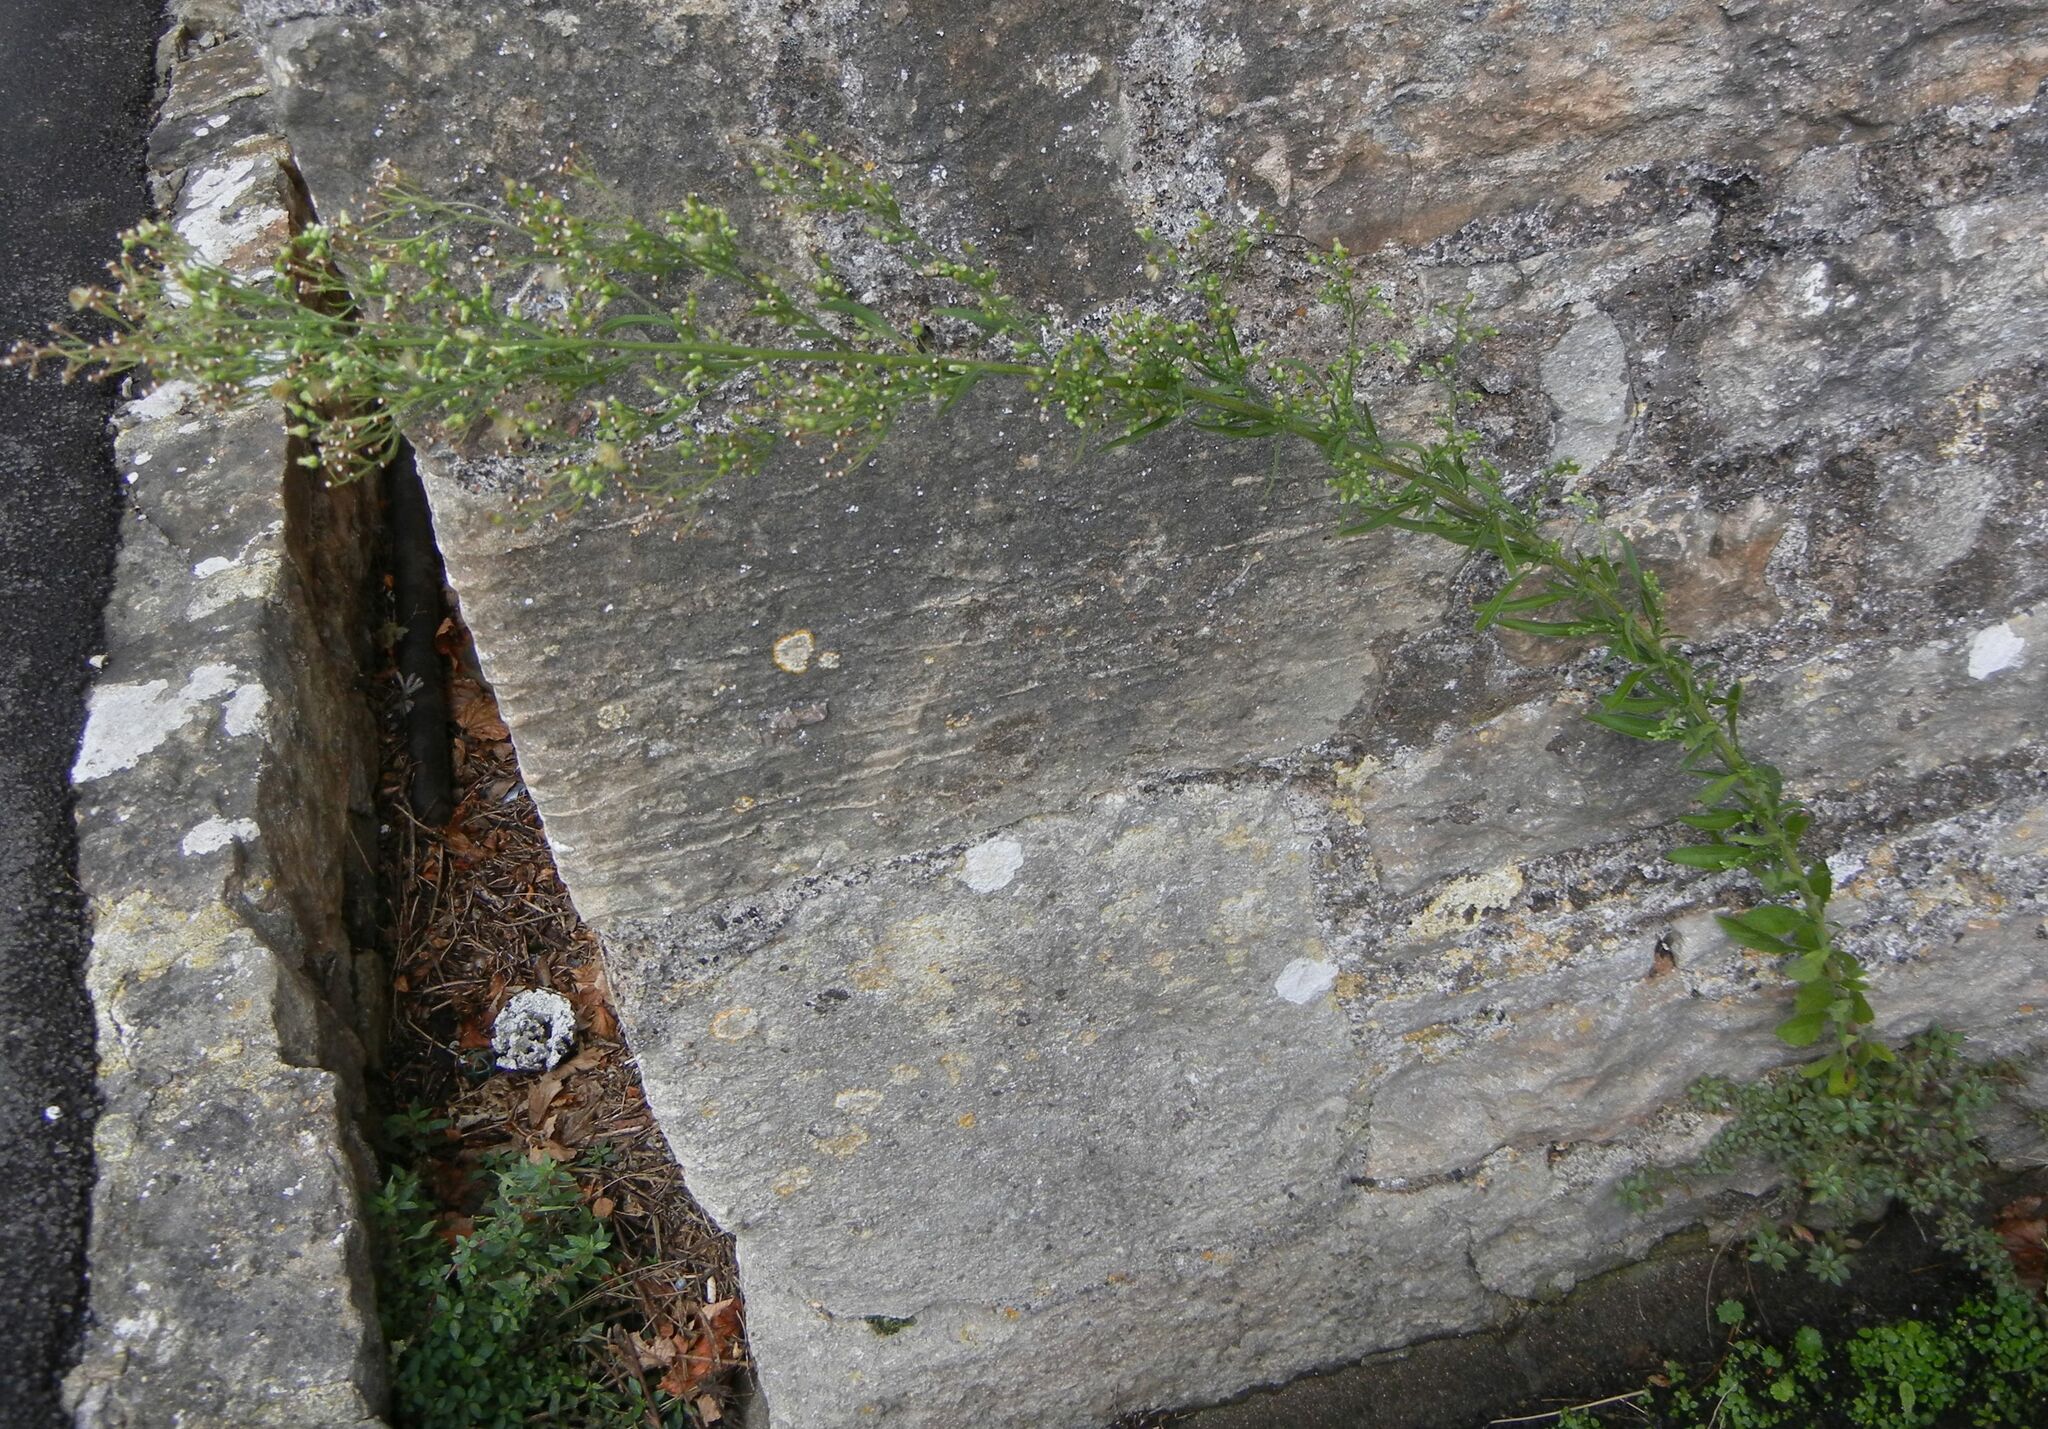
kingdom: Plantae
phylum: Tracheophyta
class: Magnoliopsida
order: Asterales
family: Asteraceae
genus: Erigeron
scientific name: Erigeron sumatrensis
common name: Daisy
